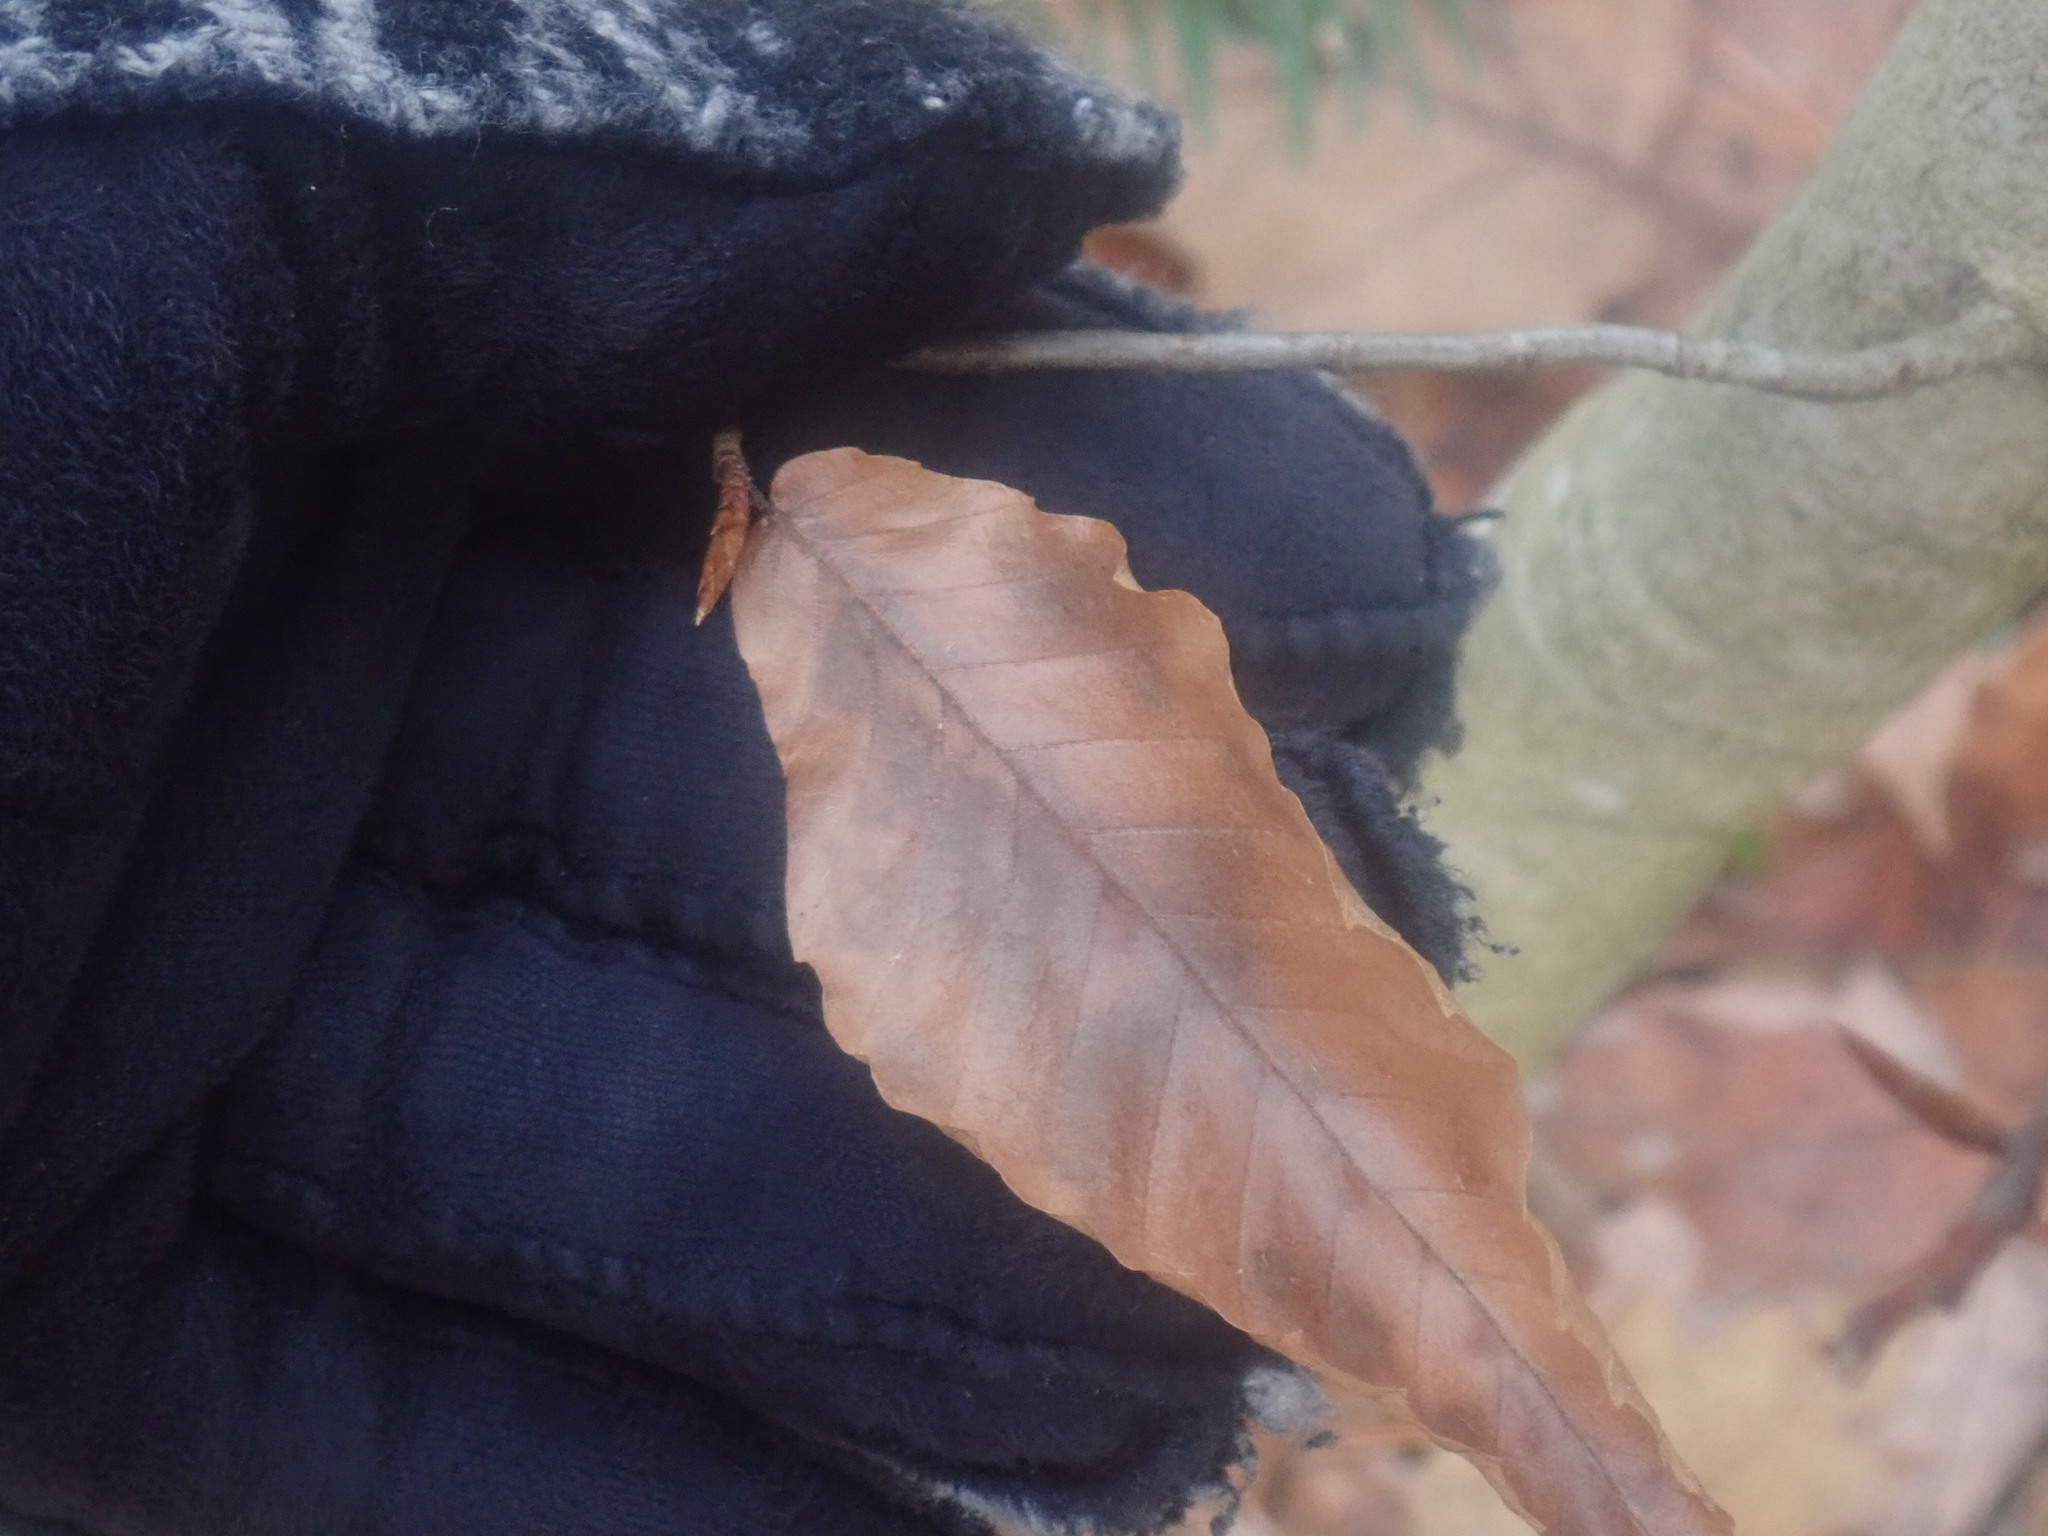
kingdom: Plantae
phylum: Tracheophyta
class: Magnoliopsida
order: Fagales
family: Fagaceae
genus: Fagus
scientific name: Fagus grandifolia
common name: American beech
